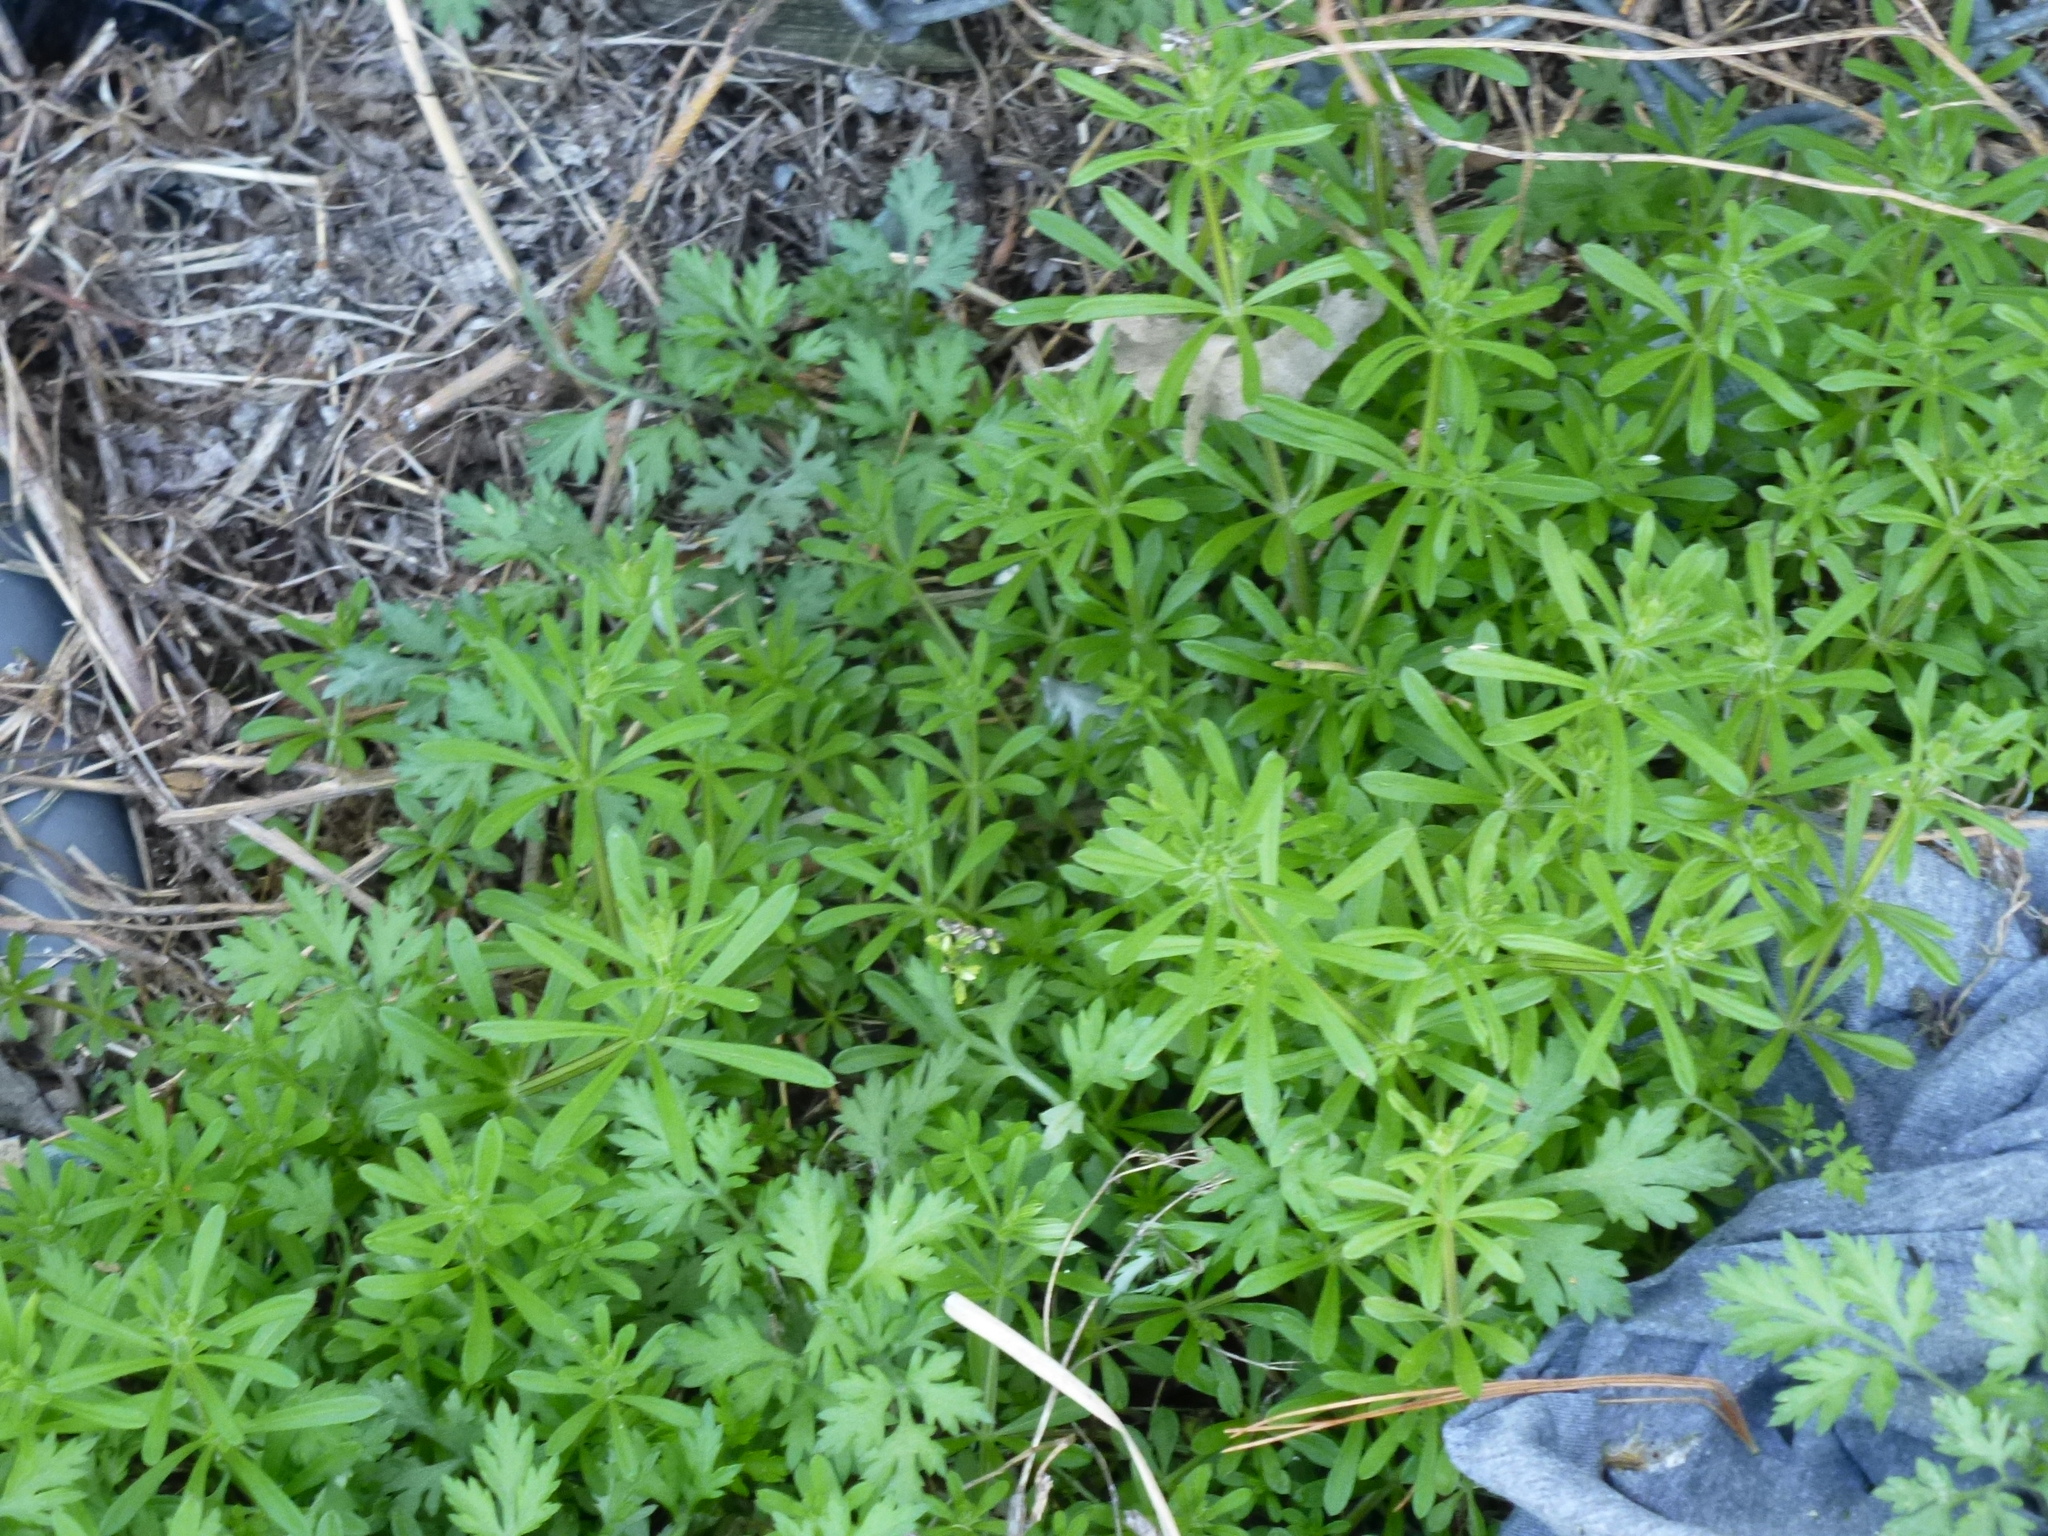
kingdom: Plantae
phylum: Tracheophyta
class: Magnoliopsida
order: Gentianales
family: Rubiaceae
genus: Galium
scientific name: Galium aparine
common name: Cleavers
